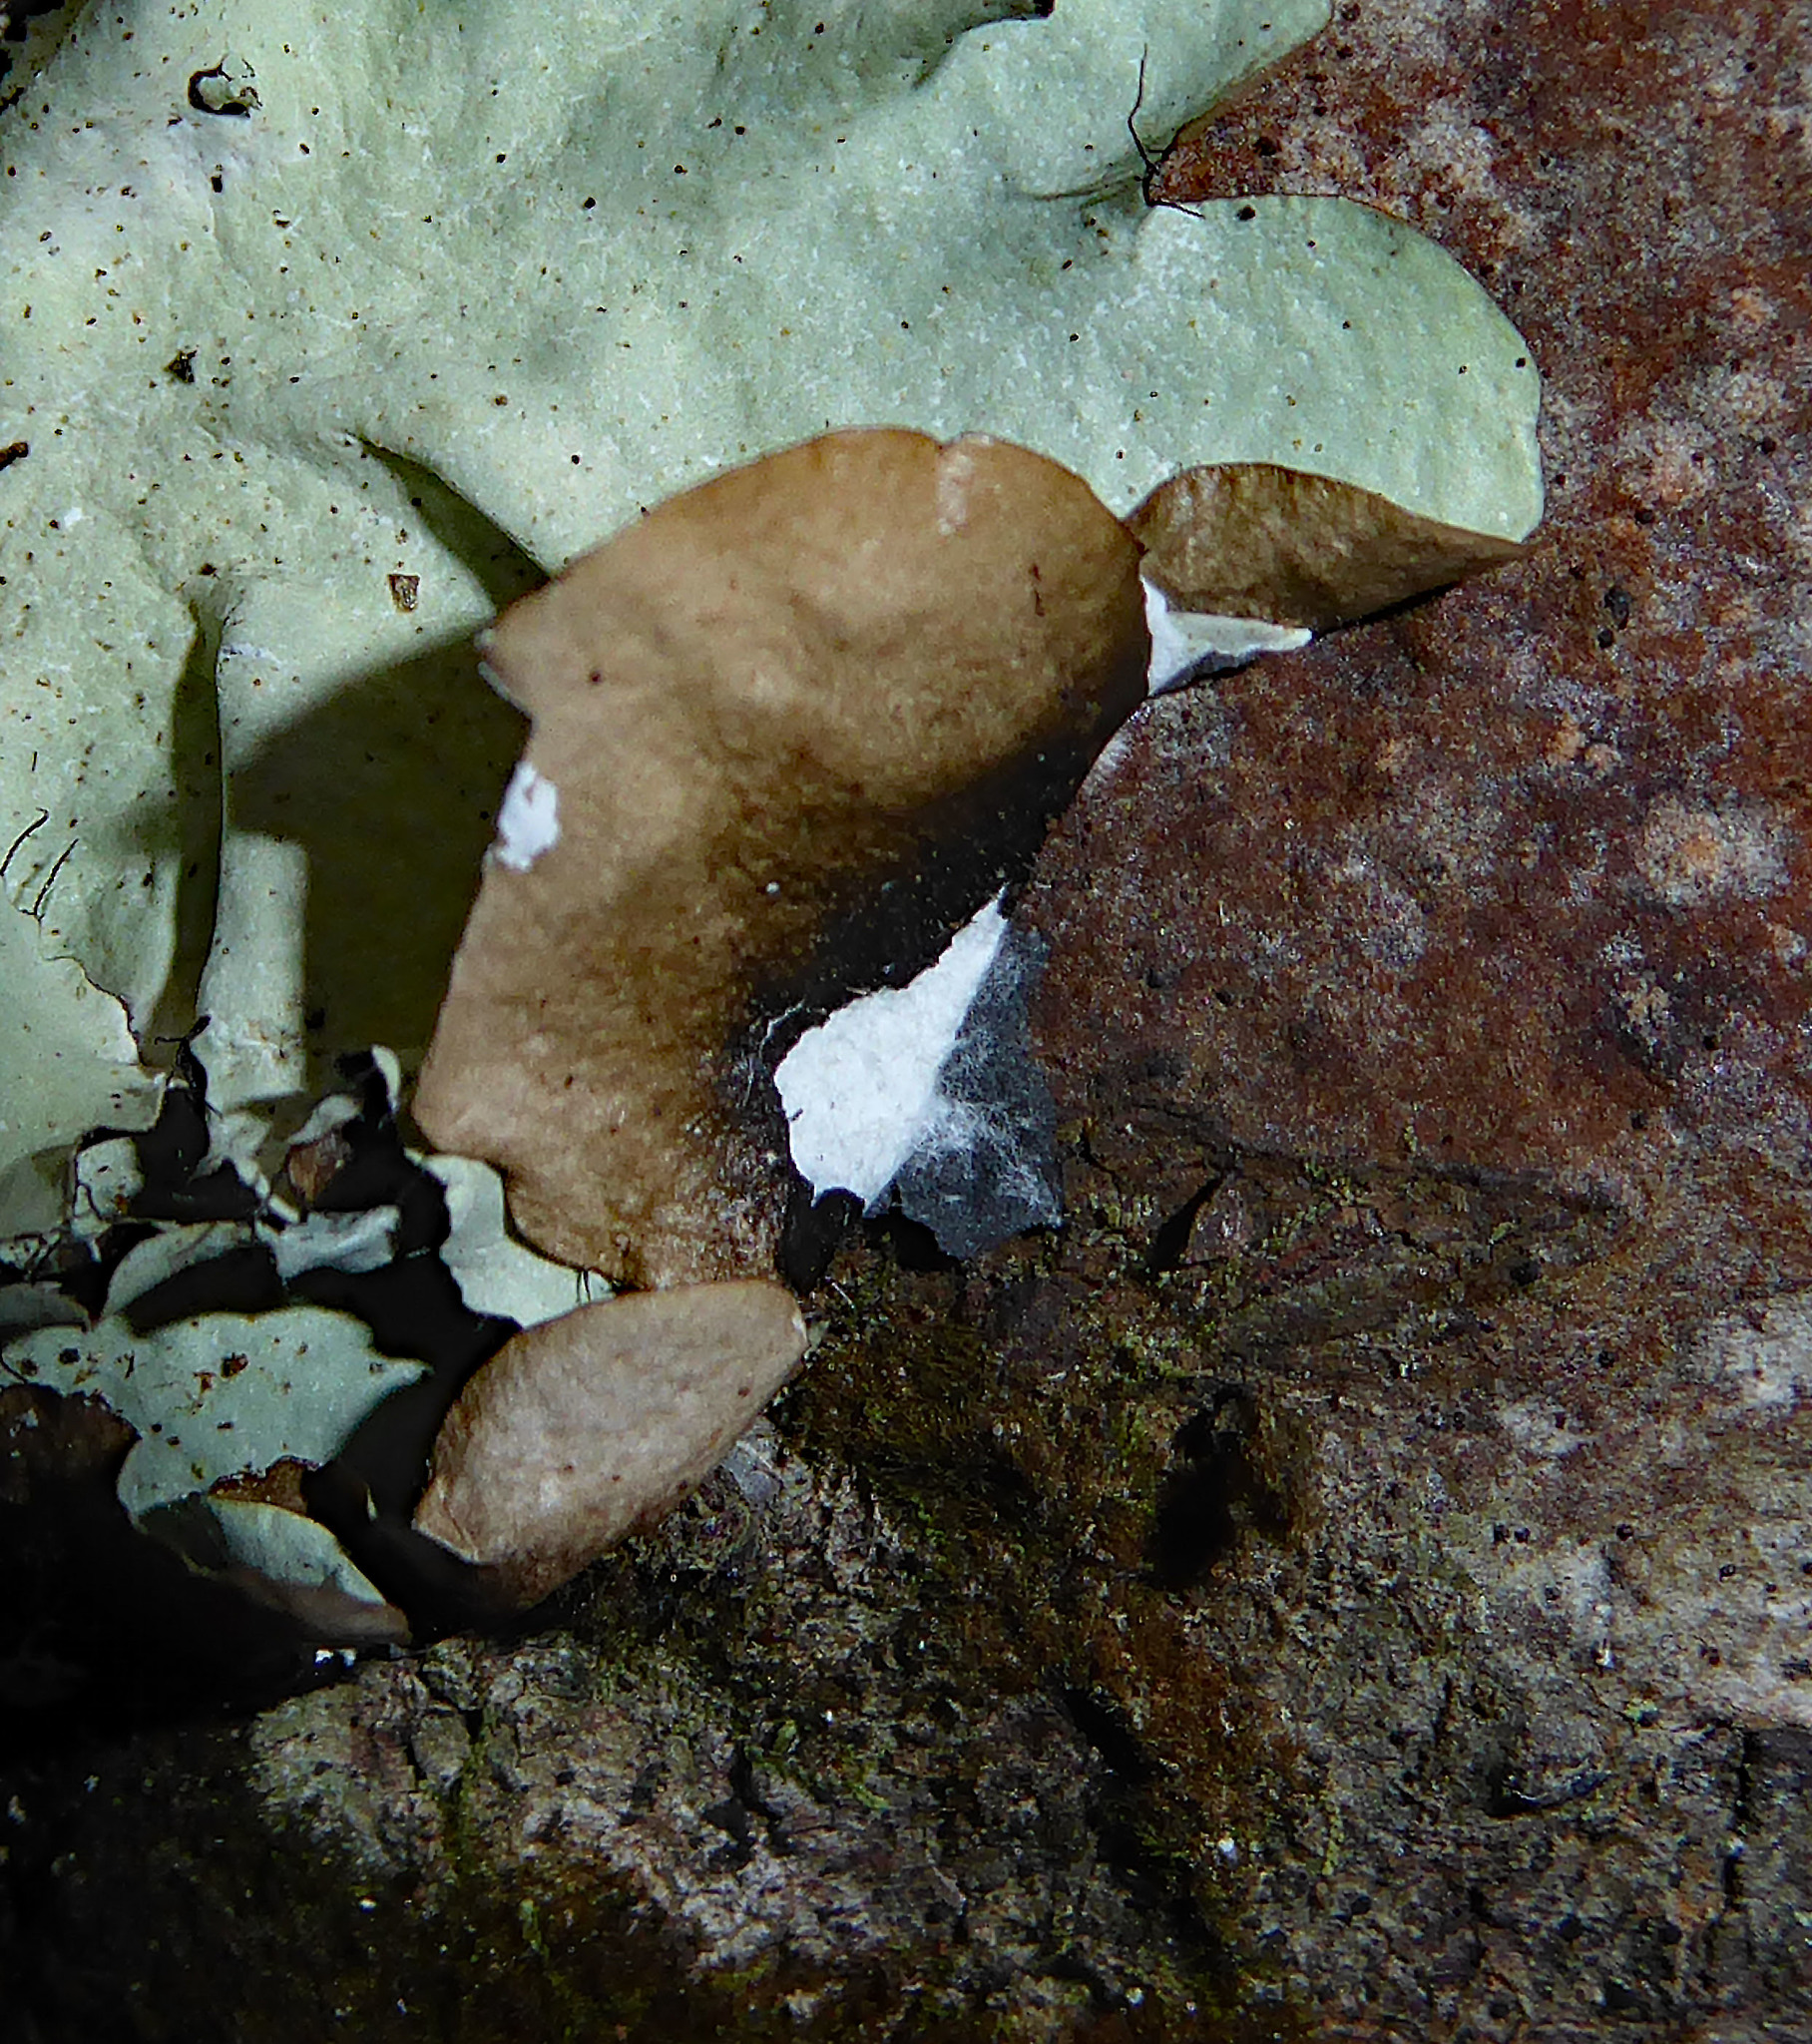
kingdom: Fungi
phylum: Ascomycota
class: Lecanoromycetes
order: Lecanorales
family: Parmeliaceae
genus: Parmotrema
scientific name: Parmotrema robustum
